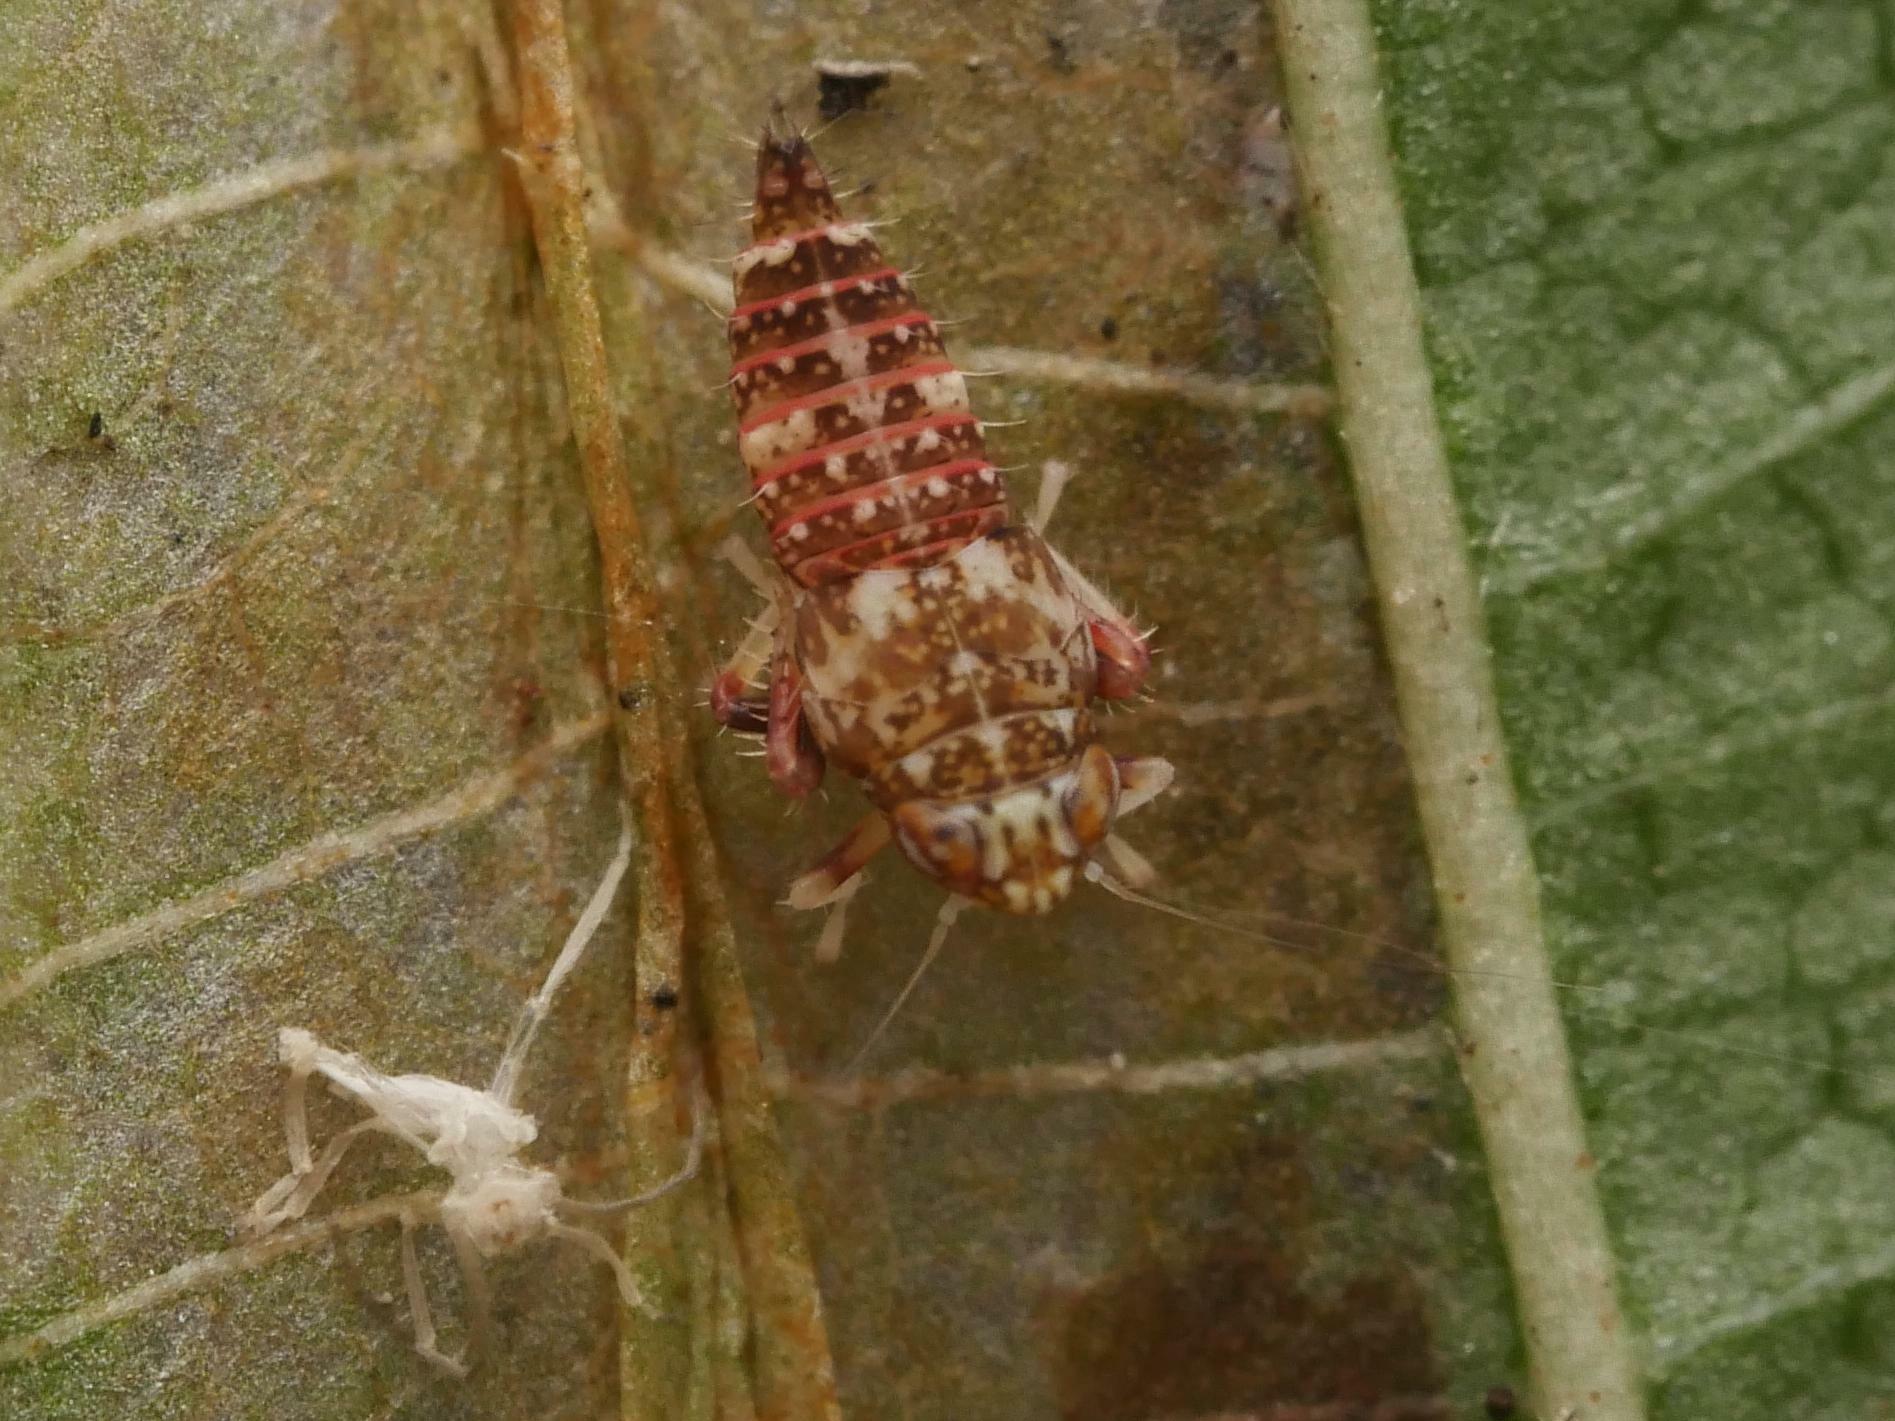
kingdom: Animalia
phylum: Arthropoda
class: Insecta
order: Hemiptera
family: Cicadellidae
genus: Orientus
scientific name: Orientus ishidae
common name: Japanese leafhopper
